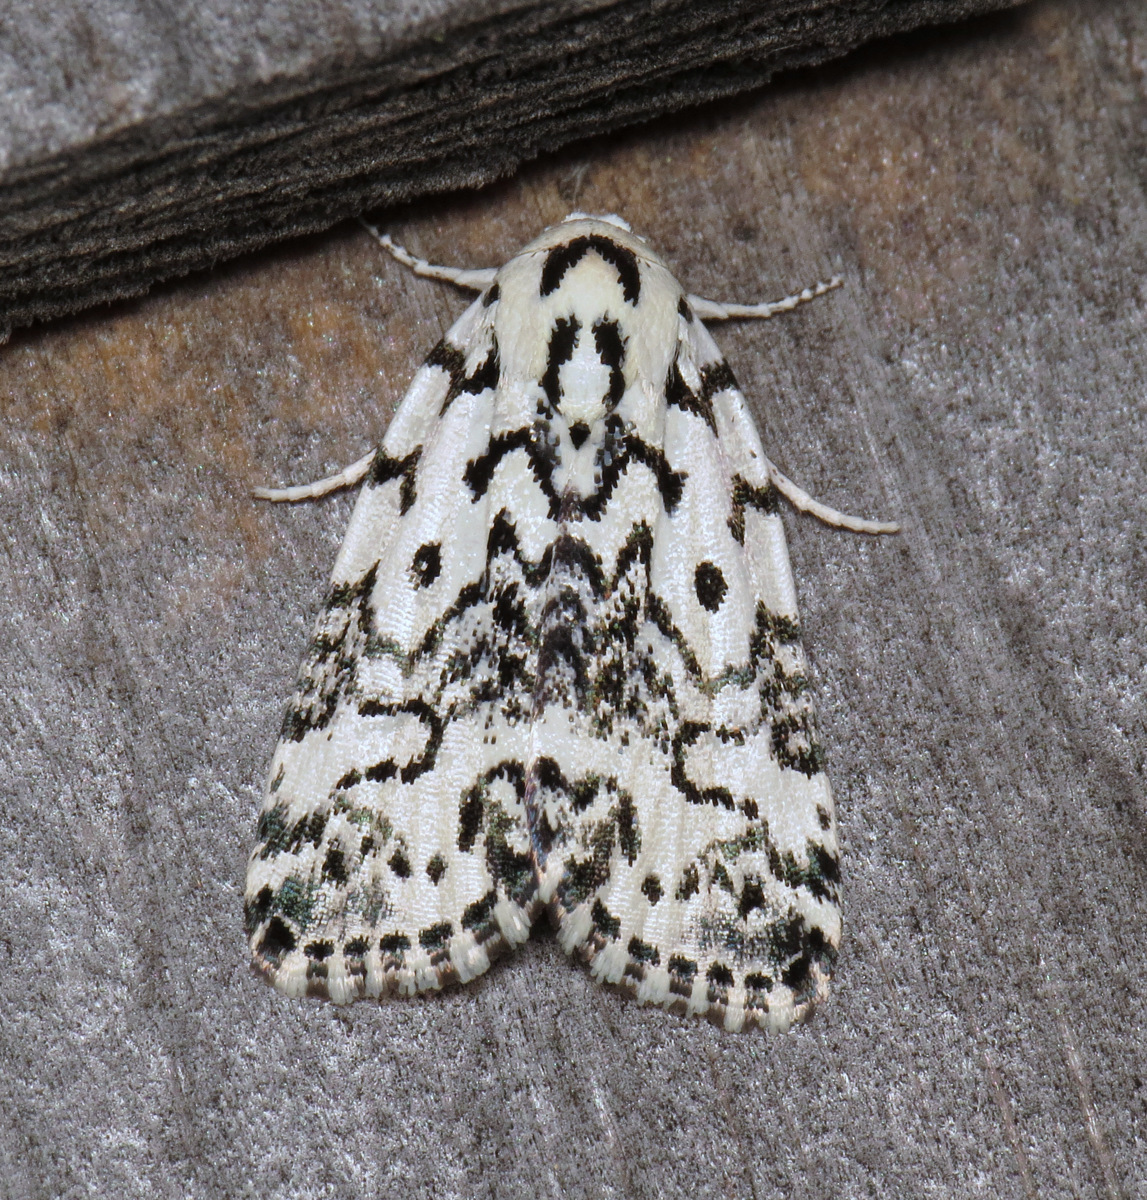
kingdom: Animalia
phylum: Arthropoda
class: Insecta
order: Lepidoptera
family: Noctuidae
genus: Polygrammate
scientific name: Polygrammate hebraeicum
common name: Hebrew moth
